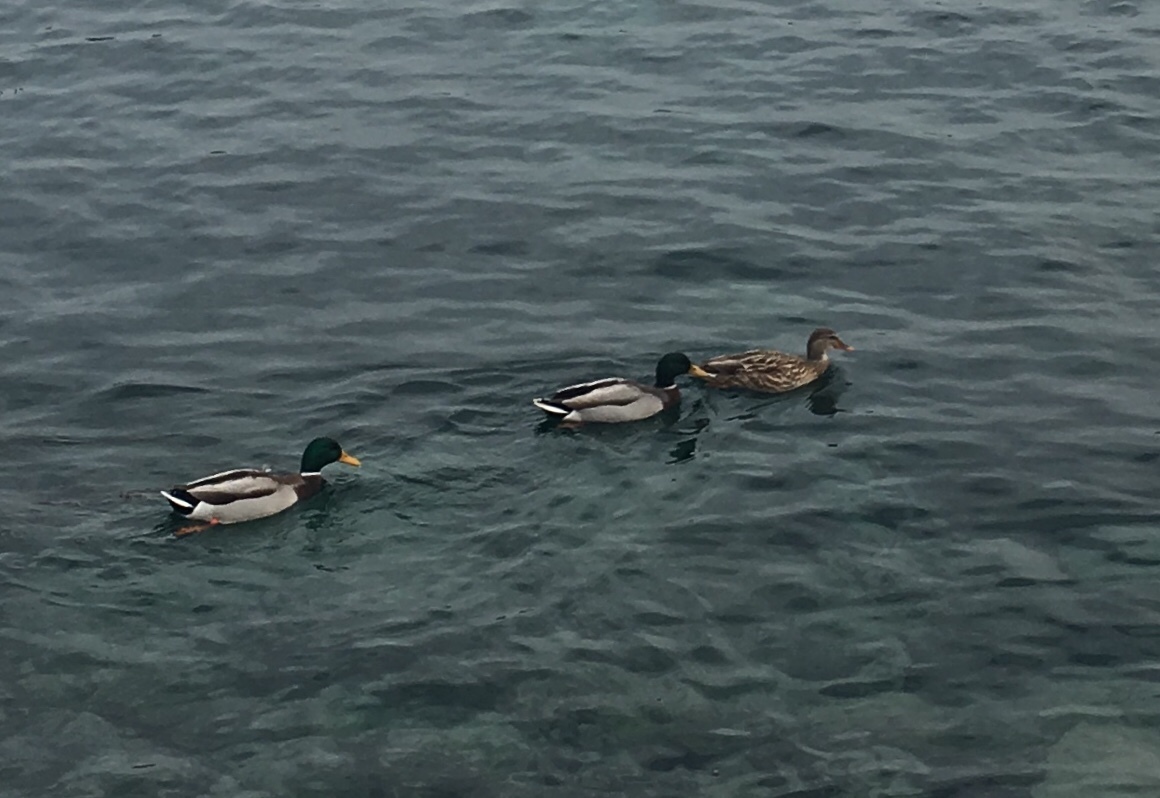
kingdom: Animalia
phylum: Chordata
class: Aves
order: Anseriformes
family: Anatidae
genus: Anas
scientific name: Anas platyrhynchos
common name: Mallard
